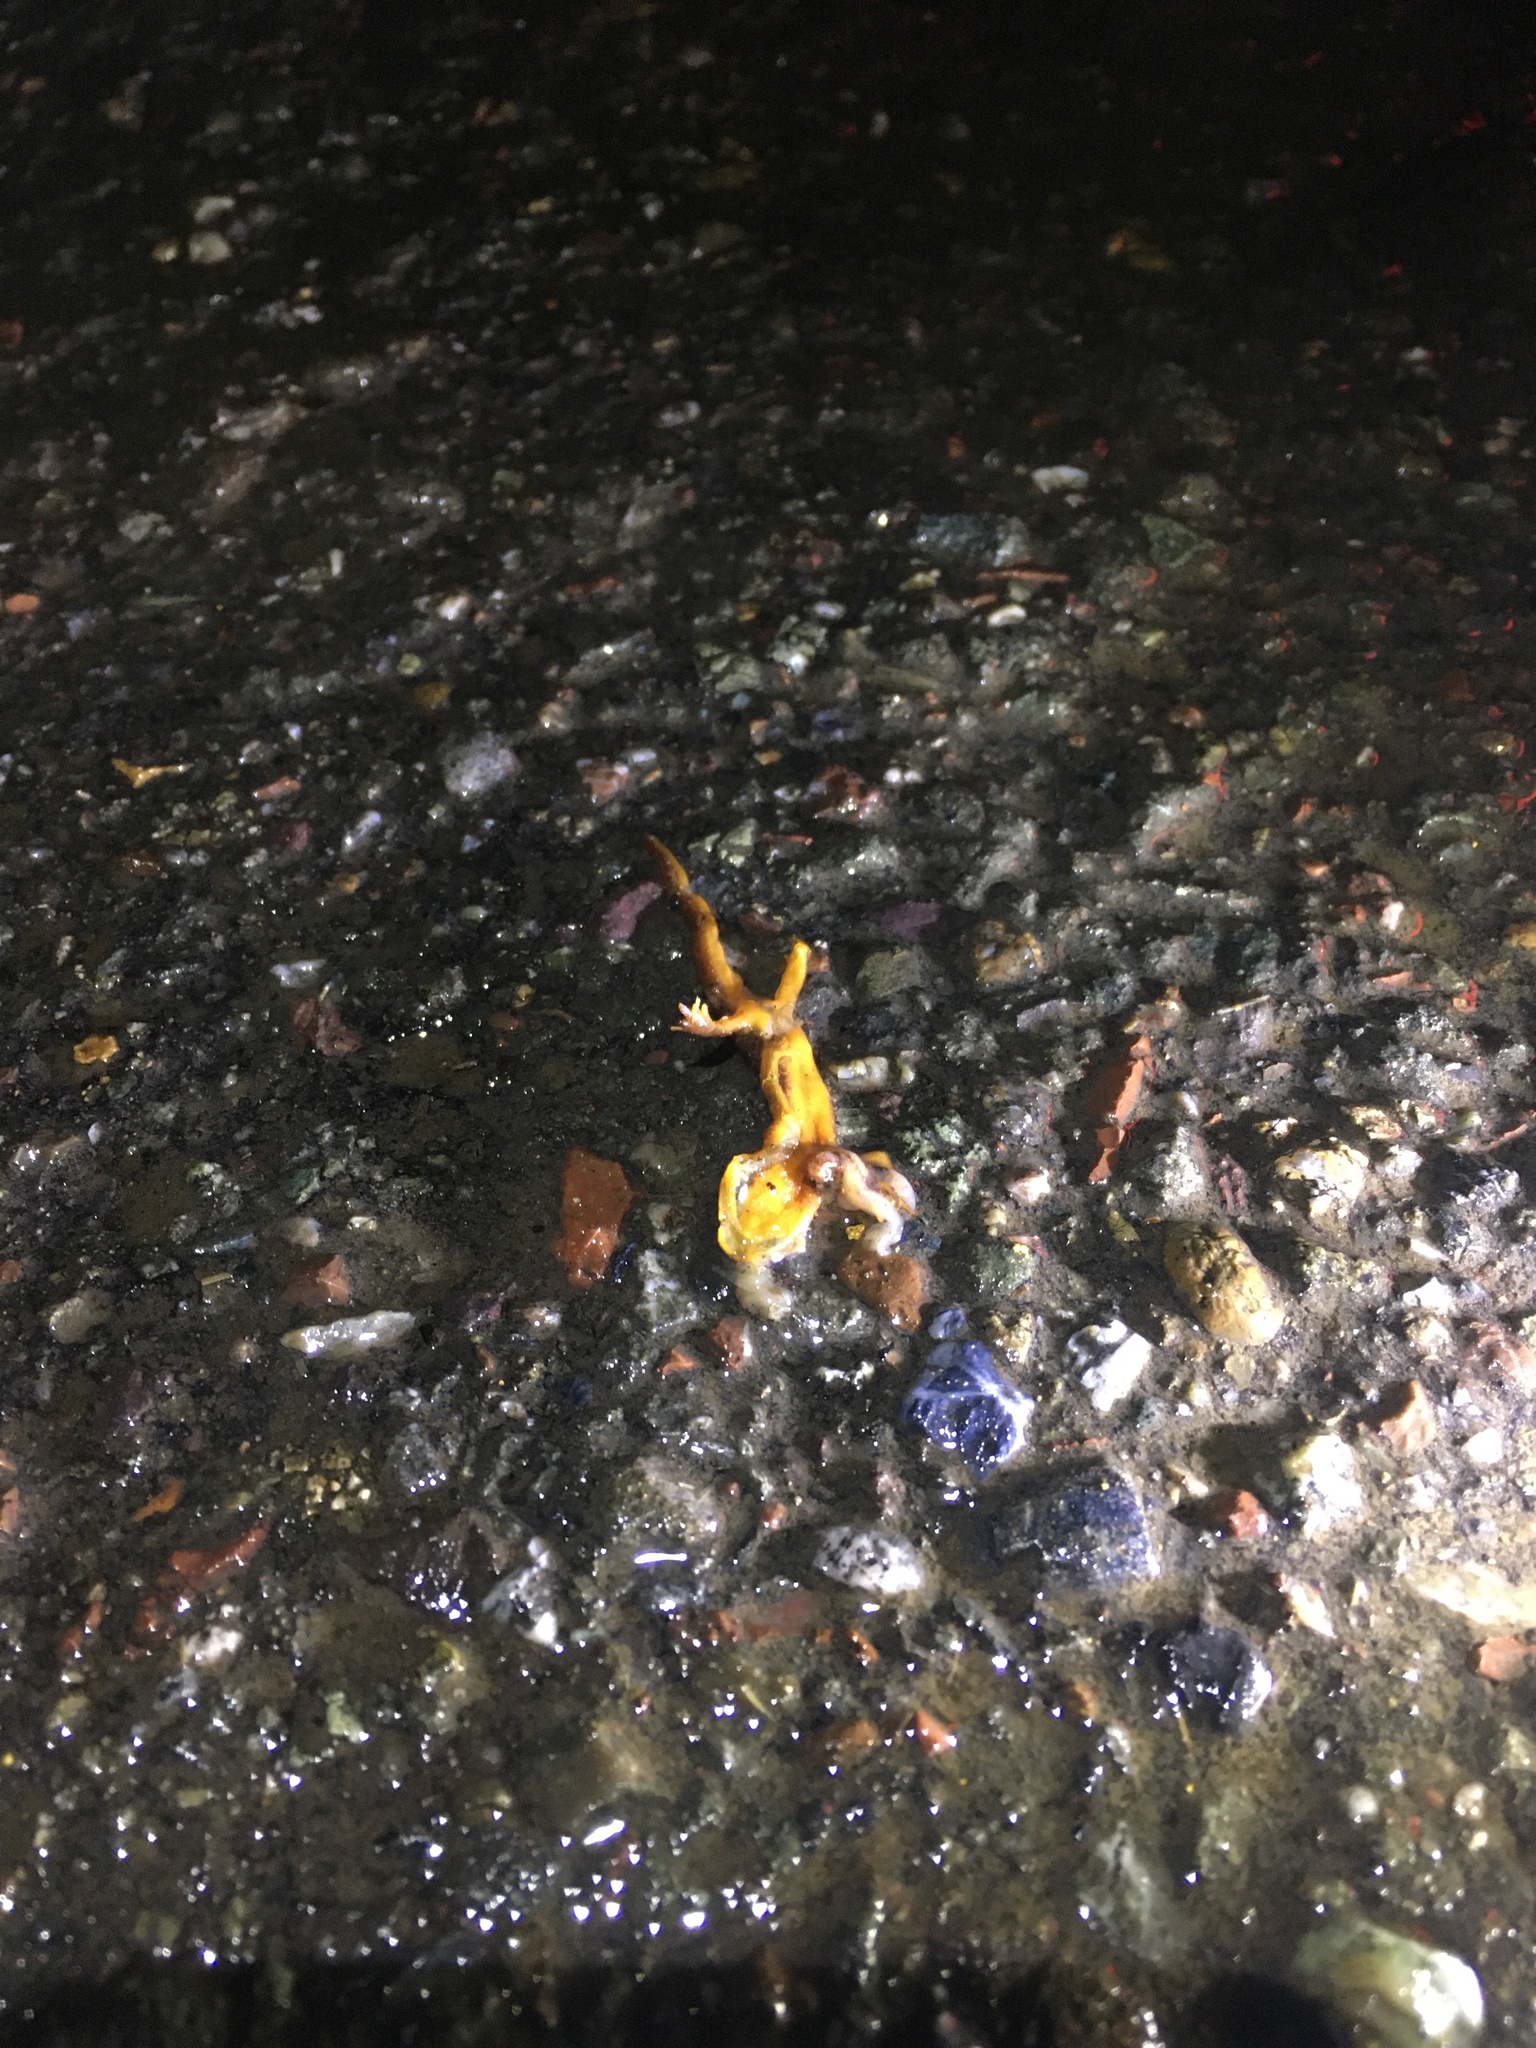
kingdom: Animalia
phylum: Chordata
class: Amphibia
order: Caudata
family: Salamandridae
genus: Taricha
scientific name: Taricha
